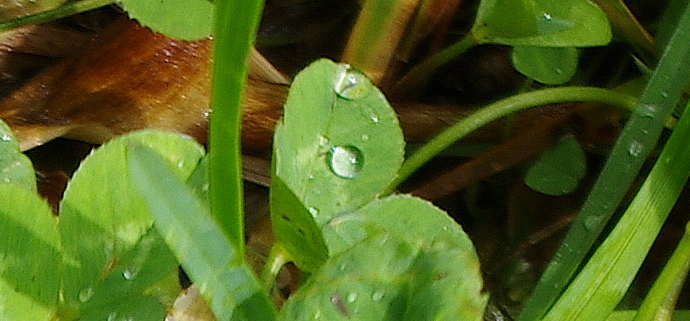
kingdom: Plantae
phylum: Tracheophyta
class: Magnoliopsida
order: Fabales
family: Fabaceae
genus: Trifolium
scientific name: Trifolium repens
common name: White clover
